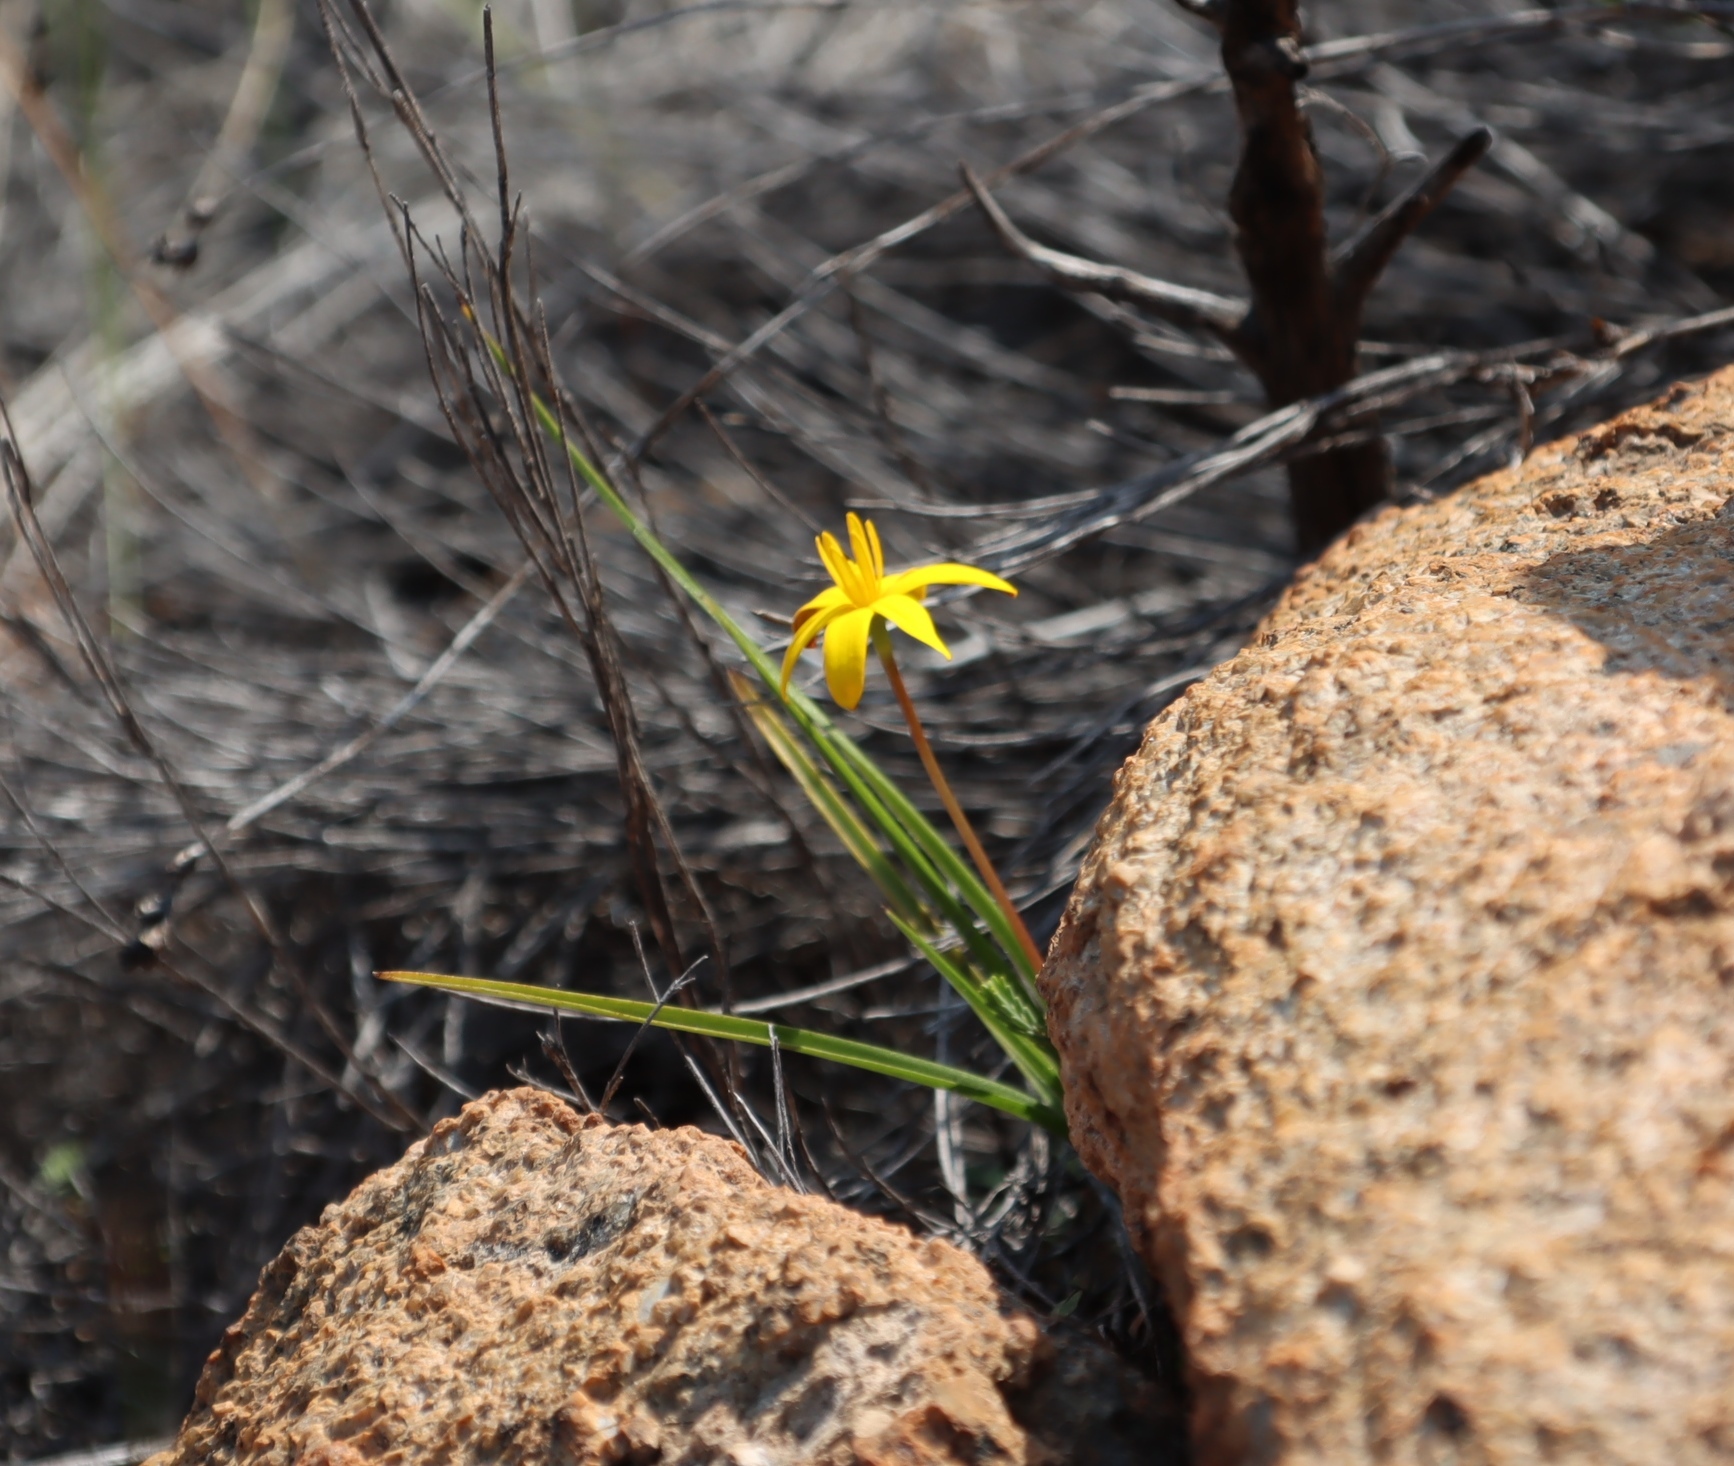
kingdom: Plantae
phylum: Tracheophyta
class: Liliopsida
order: Asparagales
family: Hypoxidaceae
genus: Pauridia
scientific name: Pauridia gracilipes
